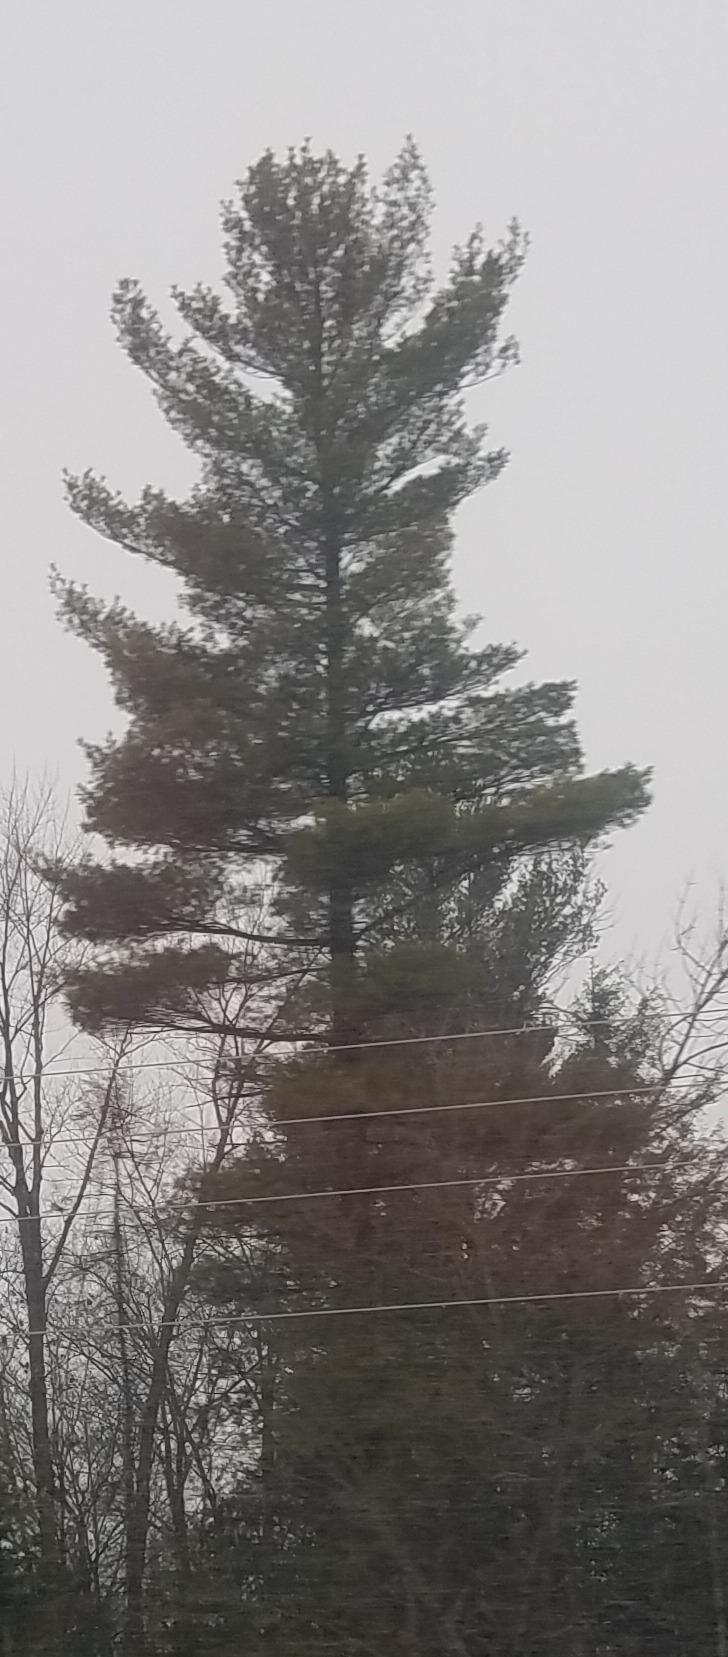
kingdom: Plantae
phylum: Tracheophyta
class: Pinopsida
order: Pinales
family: Pinaceae
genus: Pinus
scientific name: Pinus strobus
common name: Weymouth pine
